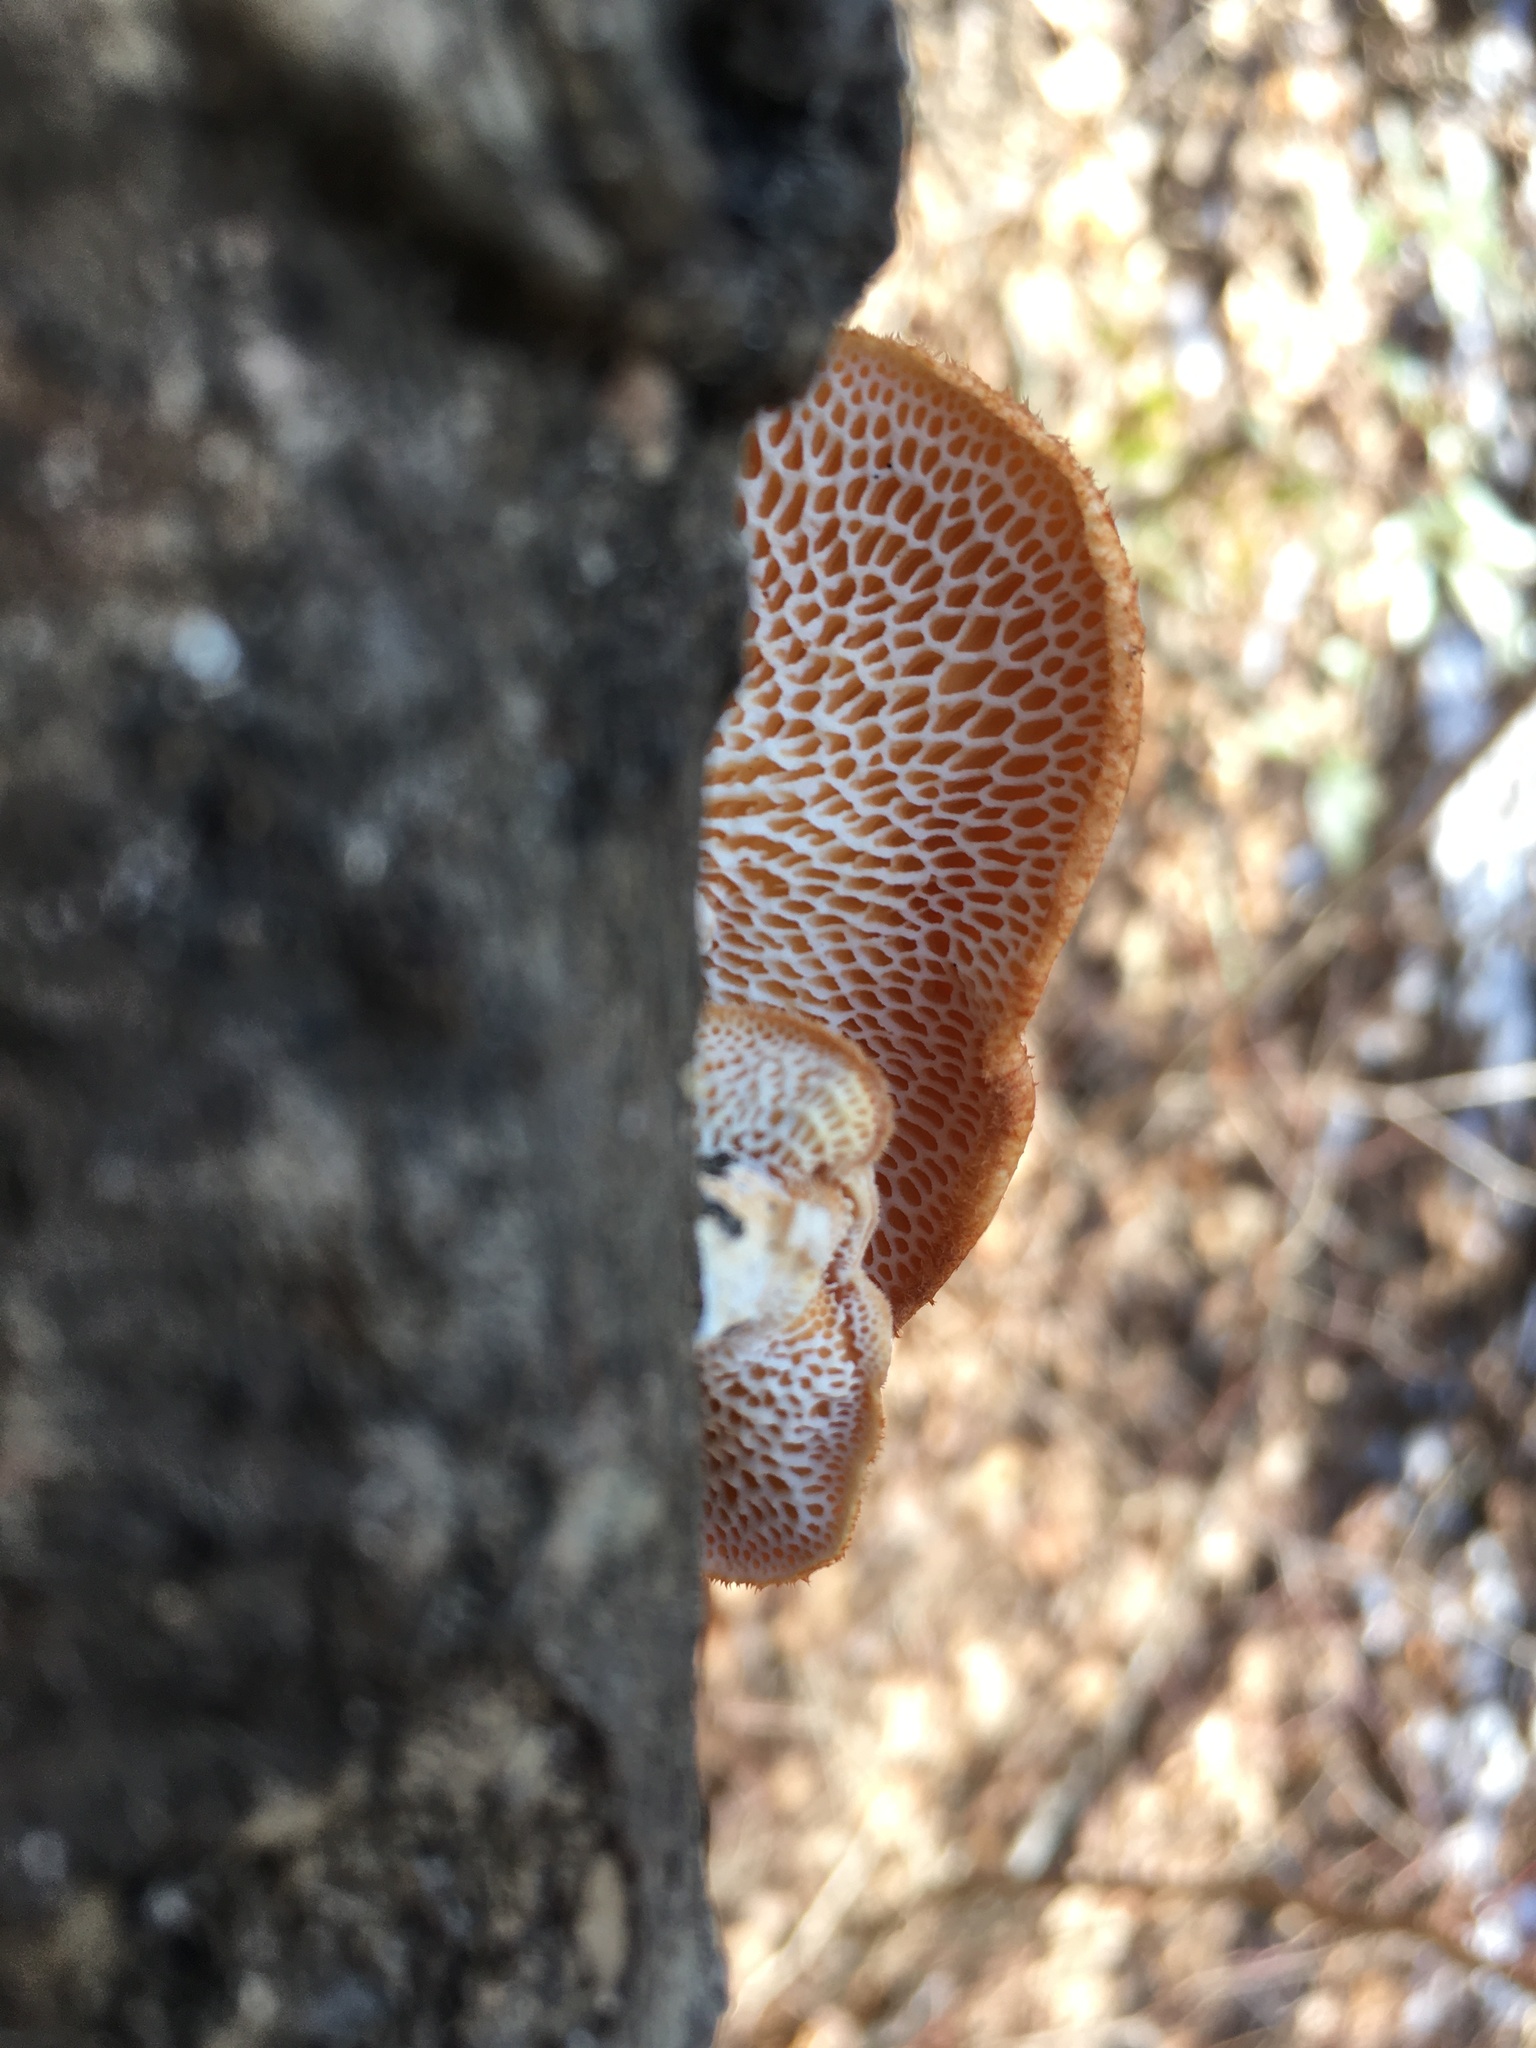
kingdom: Fungi
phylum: Basidiomycota
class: Agaricomycetes
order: Polyporales
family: Polyporaceae
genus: Neofavolus
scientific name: Neofavolus alveolaris
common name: Hexagonal-pored polypore
